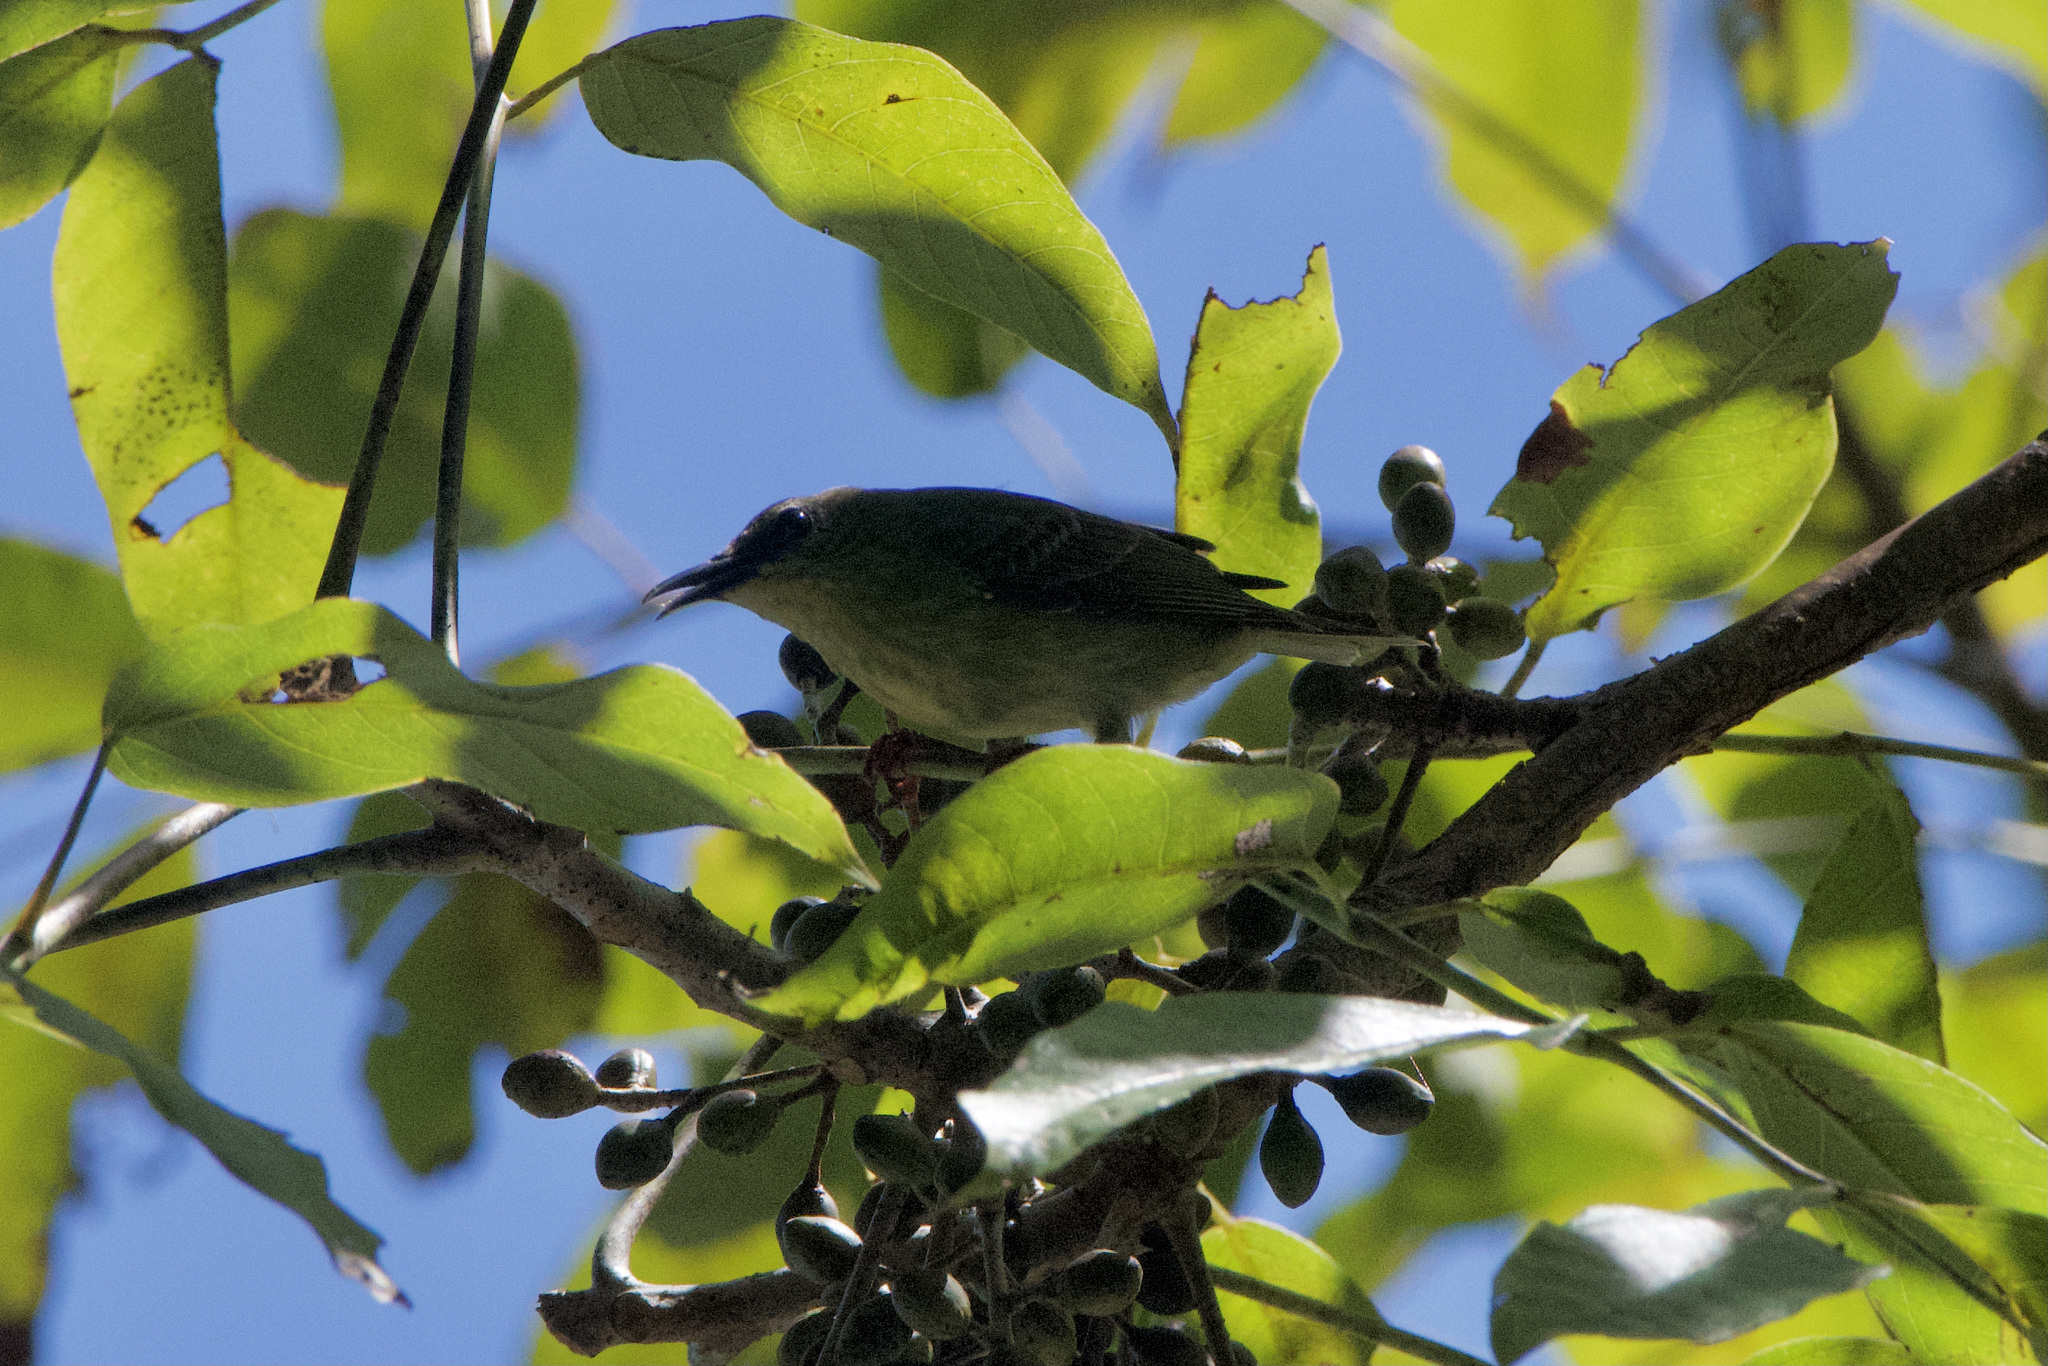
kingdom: Animalia
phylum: Chordata
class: Aves
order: Passeriformes
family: Thraupidae
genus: Cyanerpes
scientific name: Cyanerpes cyaneus
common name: Red-legged honeycreeper
